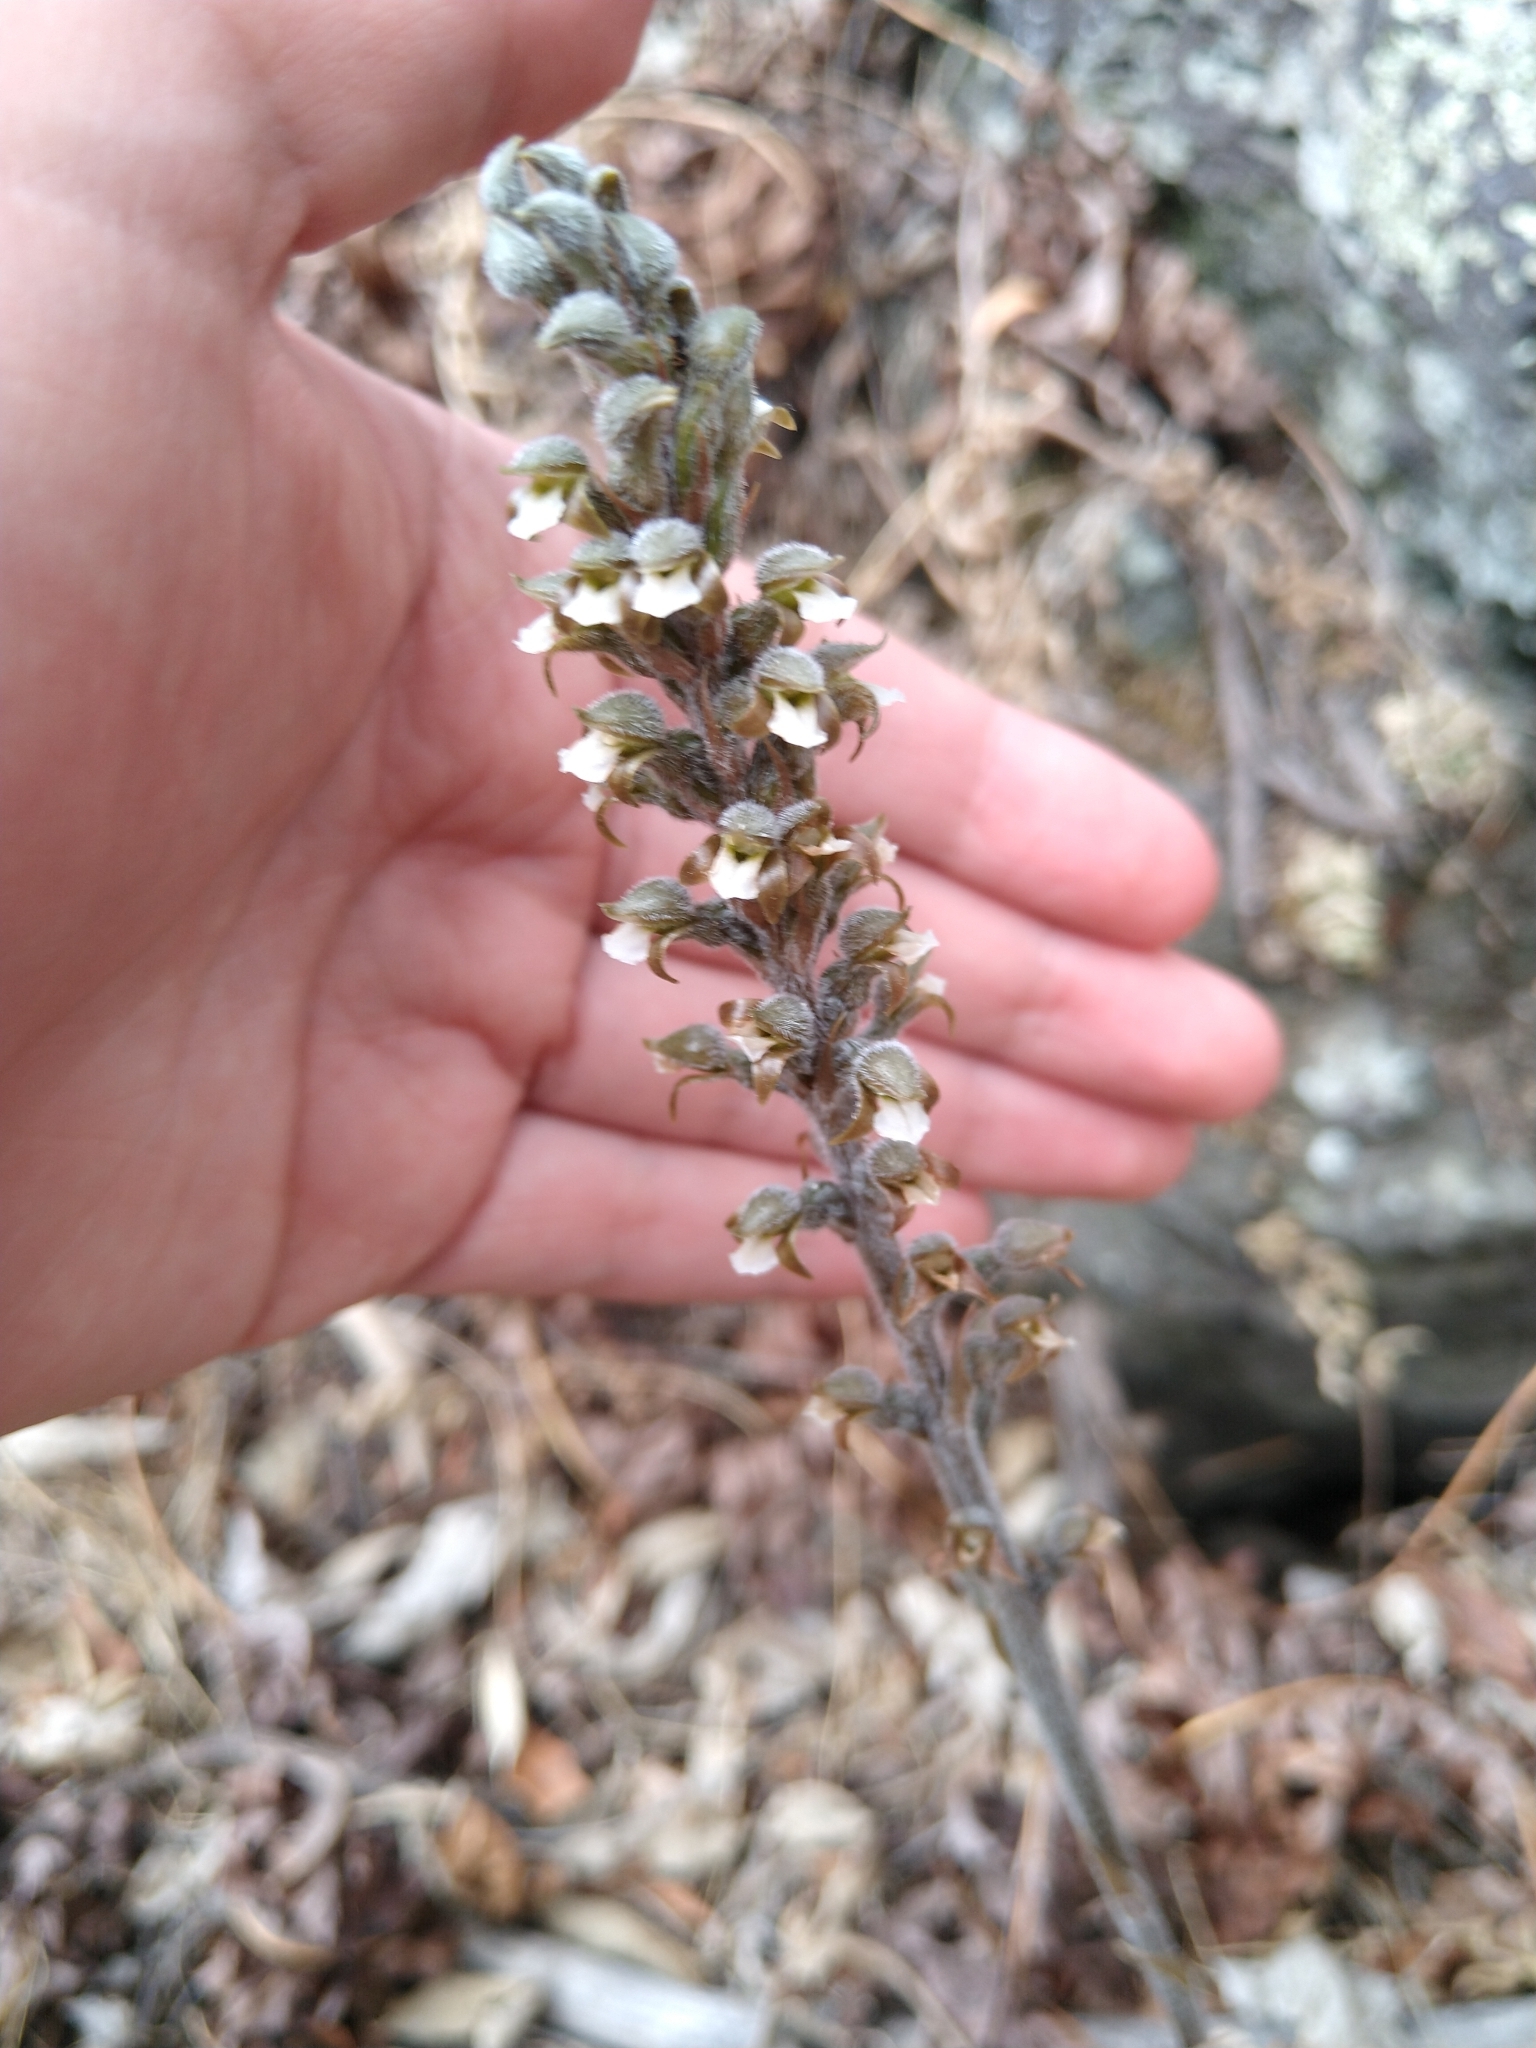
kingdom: Plantae
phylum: Tracheophyta
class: Liliopsida
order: Asparagales
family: Orchidaceae
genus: Sarcoglottis
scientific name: Sarcoglottis schaffneri
